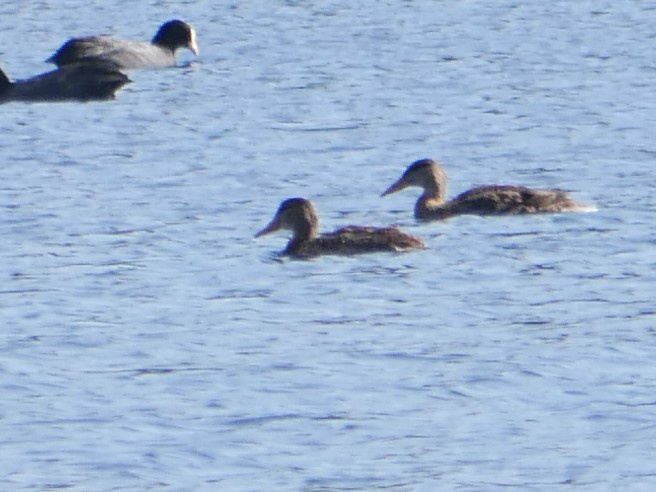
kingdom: Animalia
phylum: Chordata
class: Aves
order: Anseriformes
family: Anatidae
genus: Anas
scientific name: Anas platyrhynchos
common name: Mallard
